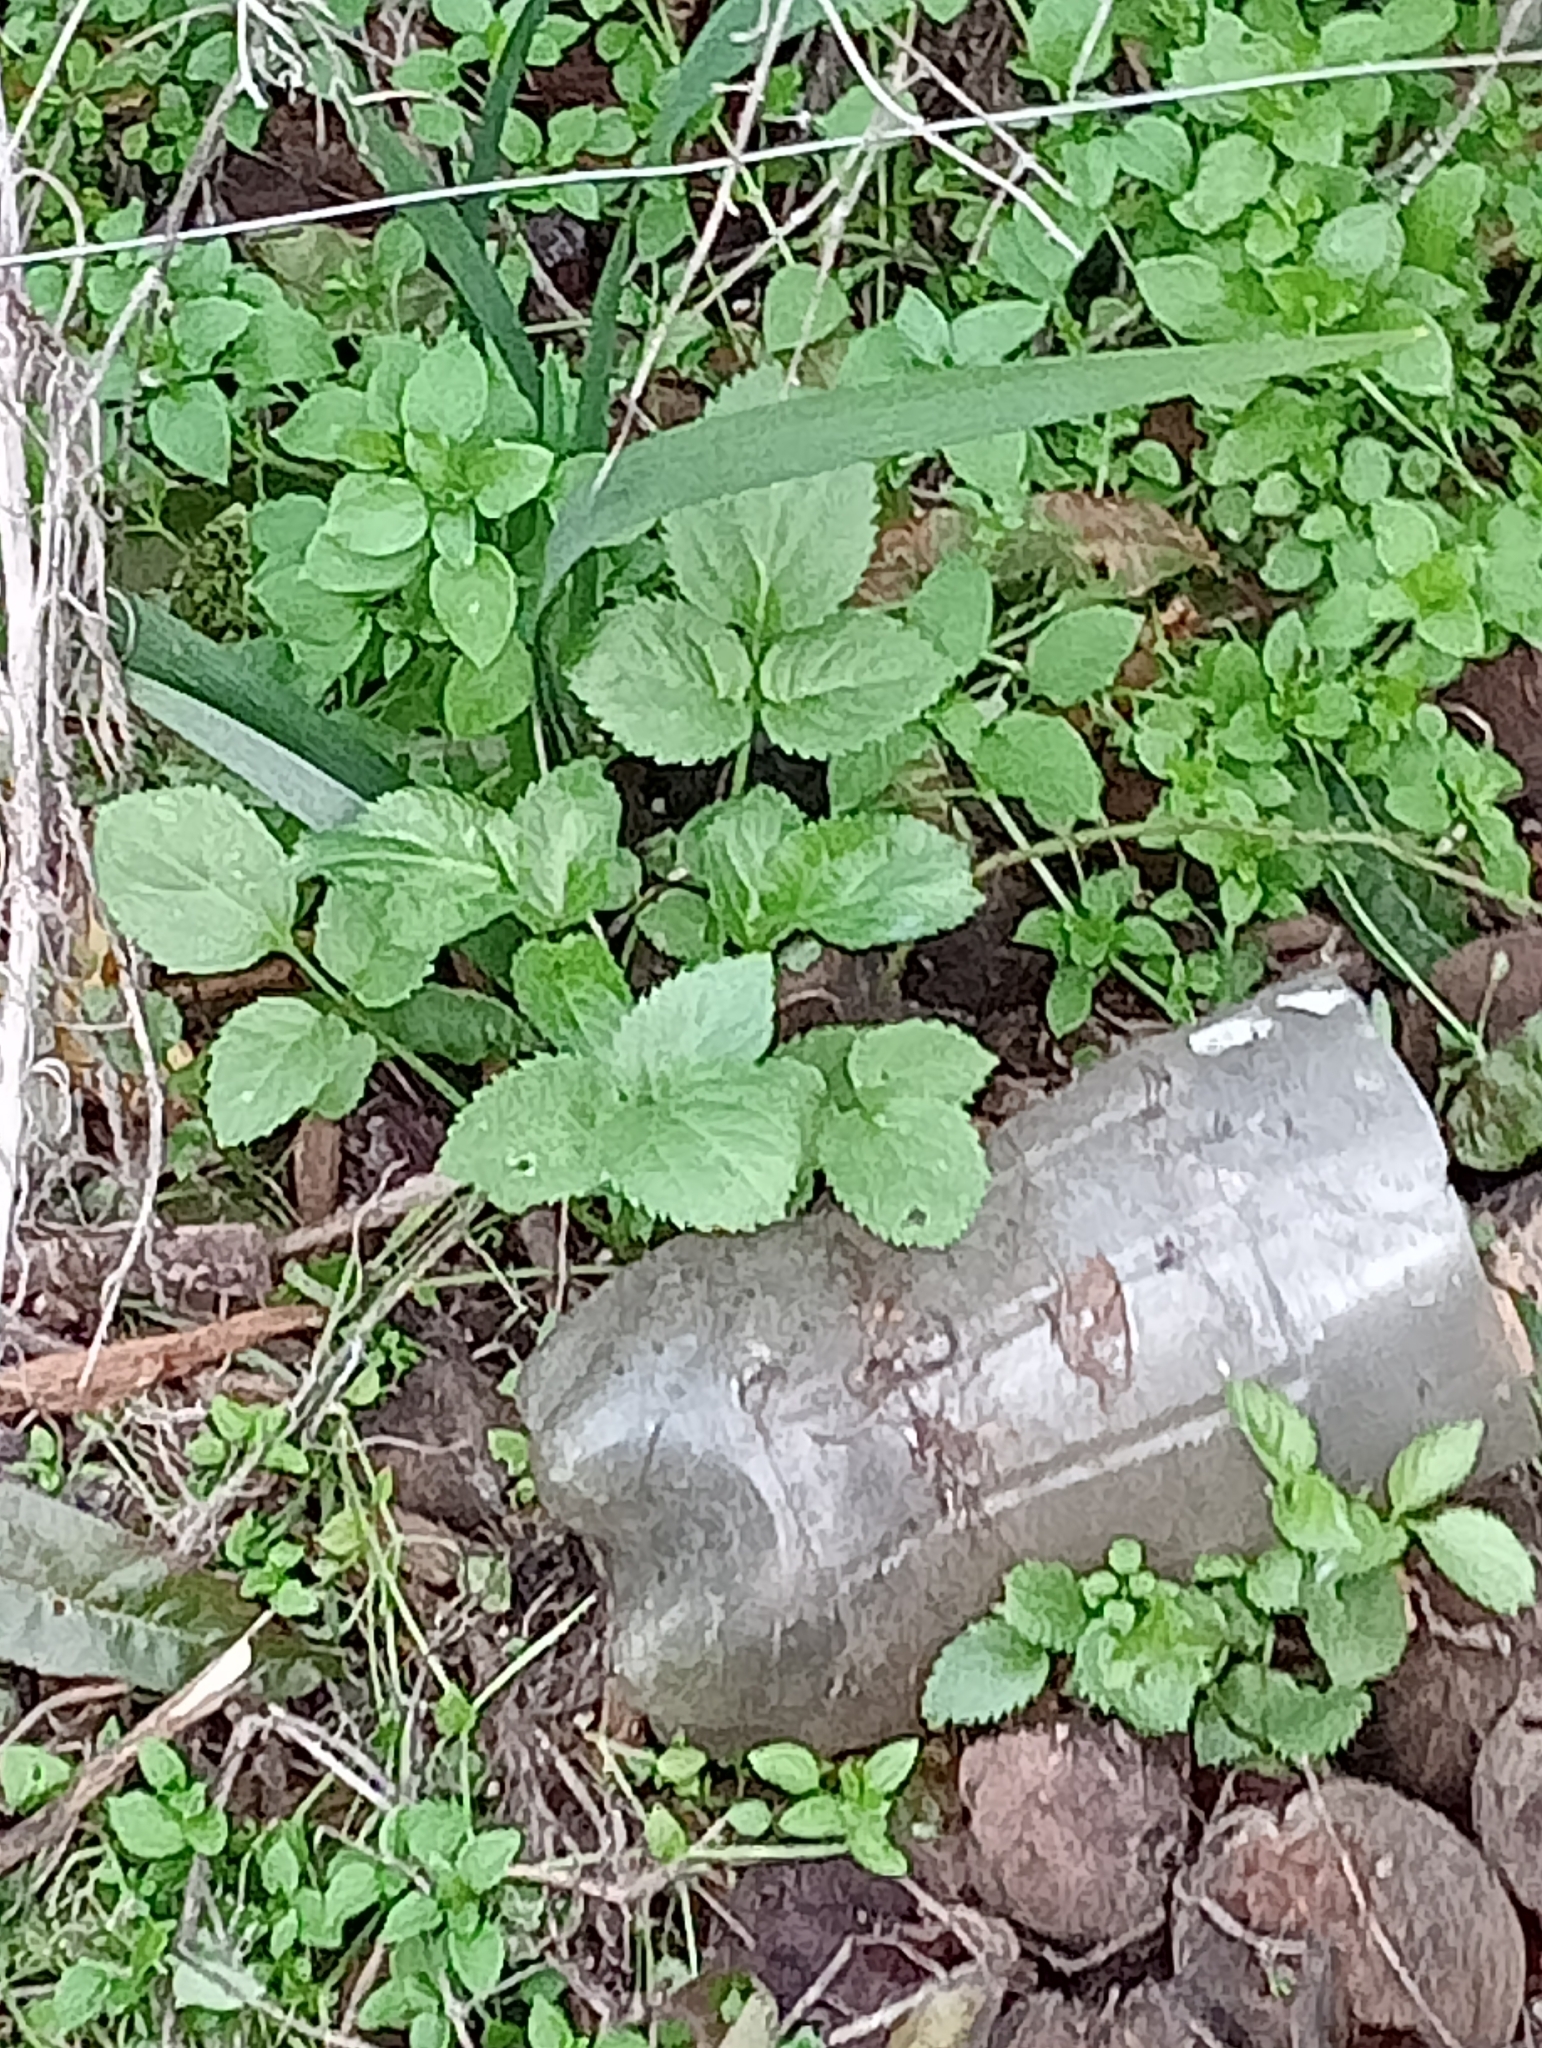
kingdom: Plantae
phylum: Tracheophyta
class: Magnoliopsida
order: Dipsacales
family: Viburnaceae
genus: Sambucus
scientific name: Sambucus nigra
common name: Elder
